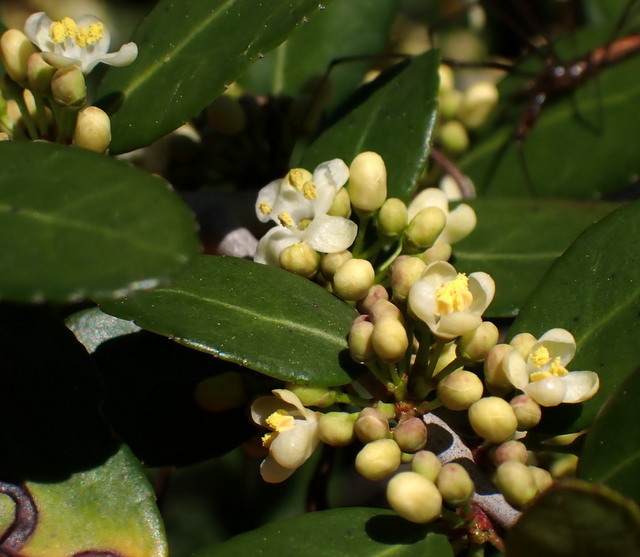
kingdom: Plantae
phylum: Tracheophyta
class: Magnoliopsida
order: Aquifoliales
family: Aquifoliaceae
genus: Ilex
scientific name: Ilex vomitoria
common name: Yaupon holly
